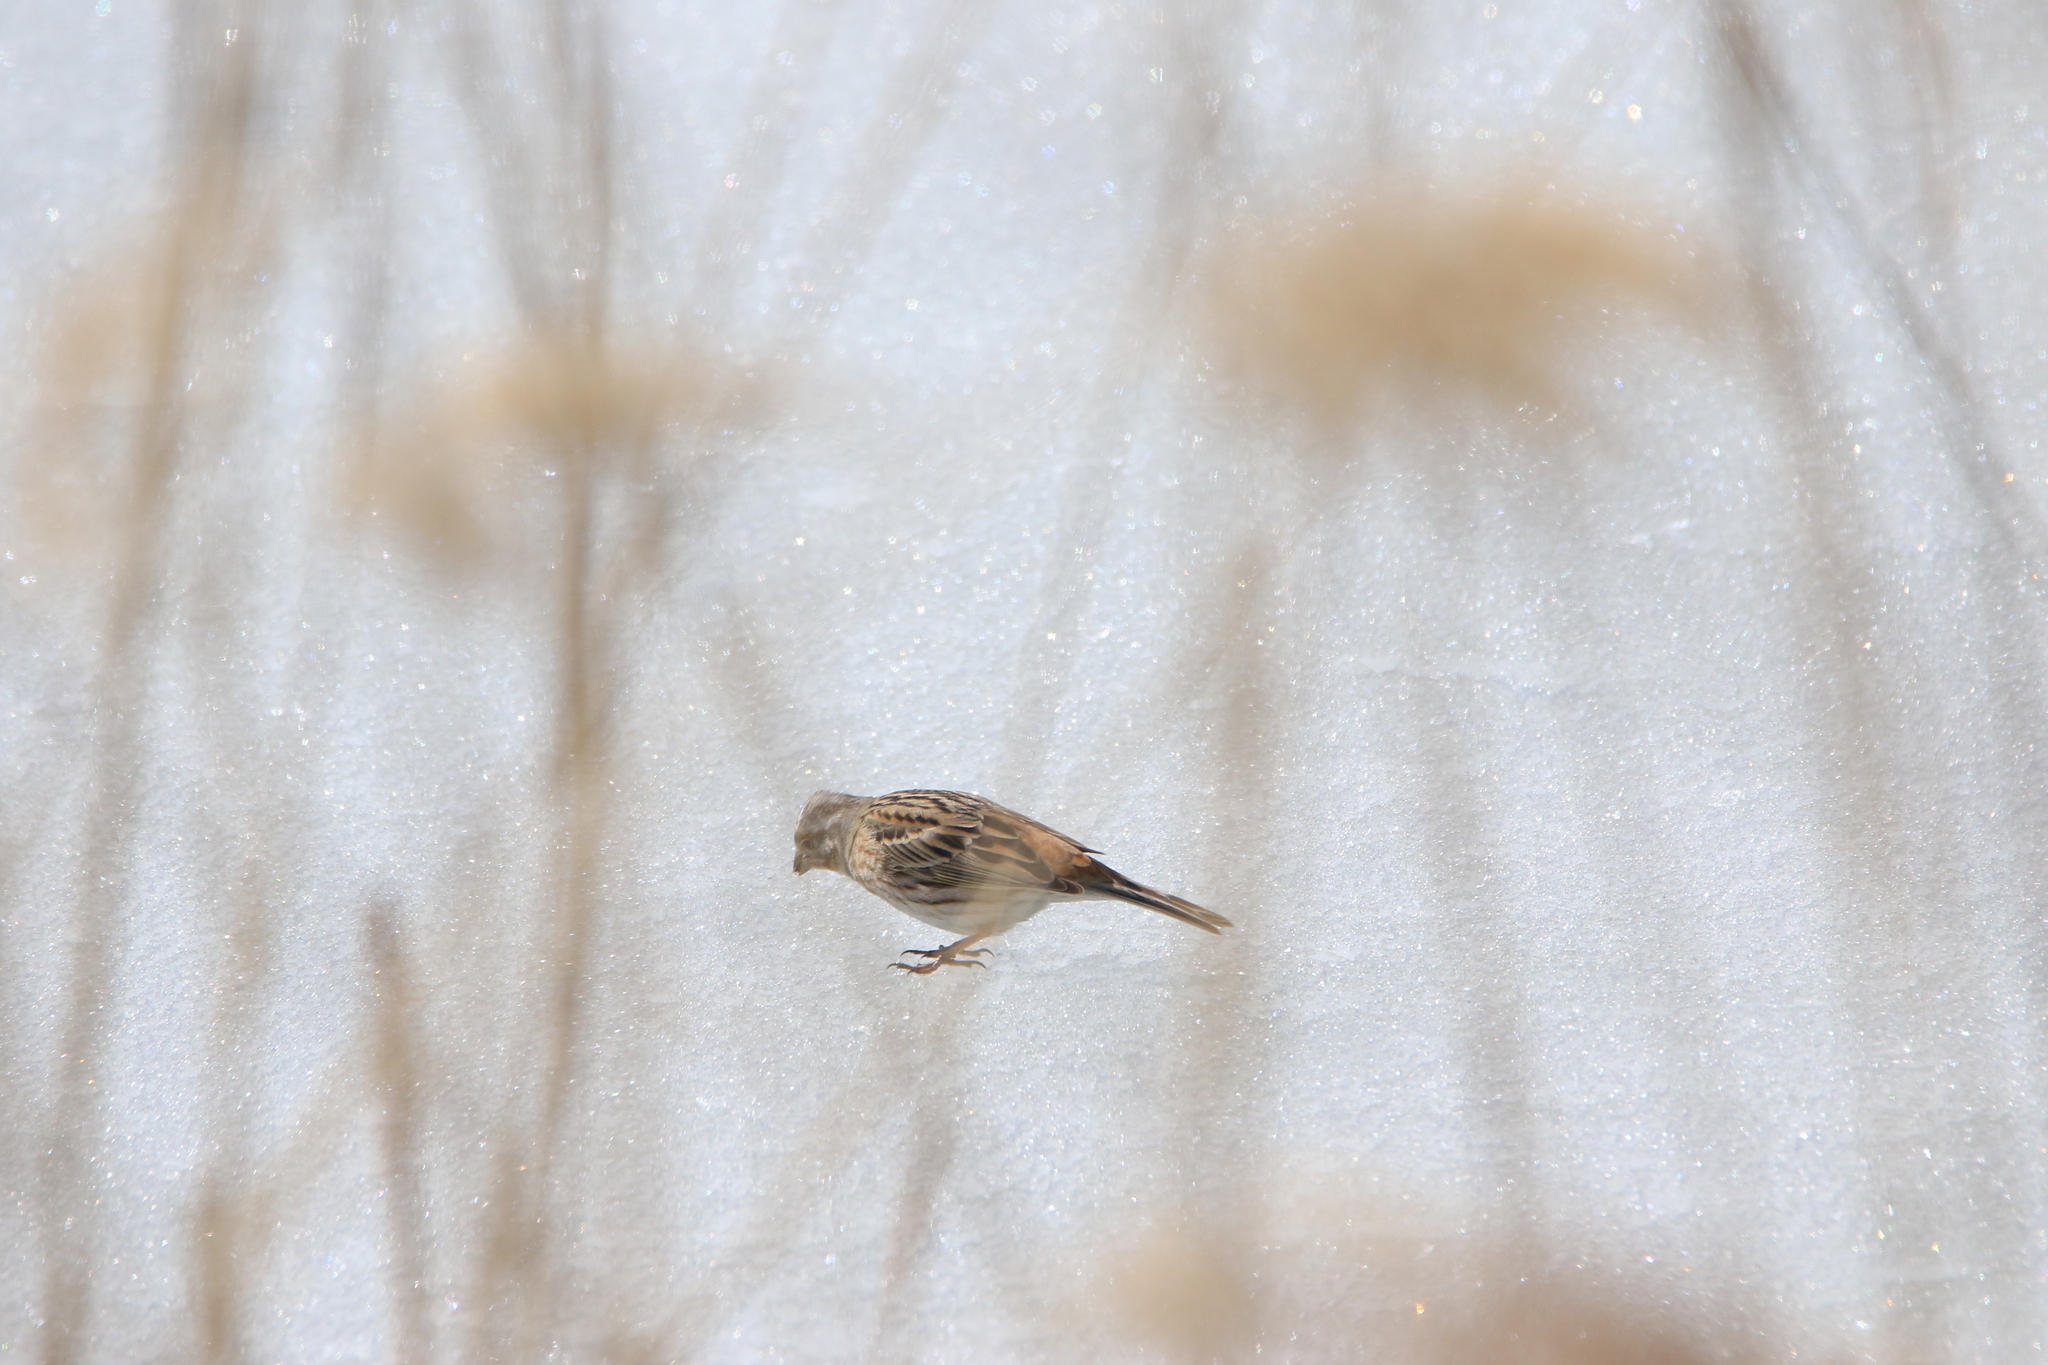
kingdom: Animalia
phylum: Chordata
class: Aves
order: Passeriformes
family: Emberizidae
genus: Emberiza
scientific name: Emberiza citrinella
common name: Yellowhammer
